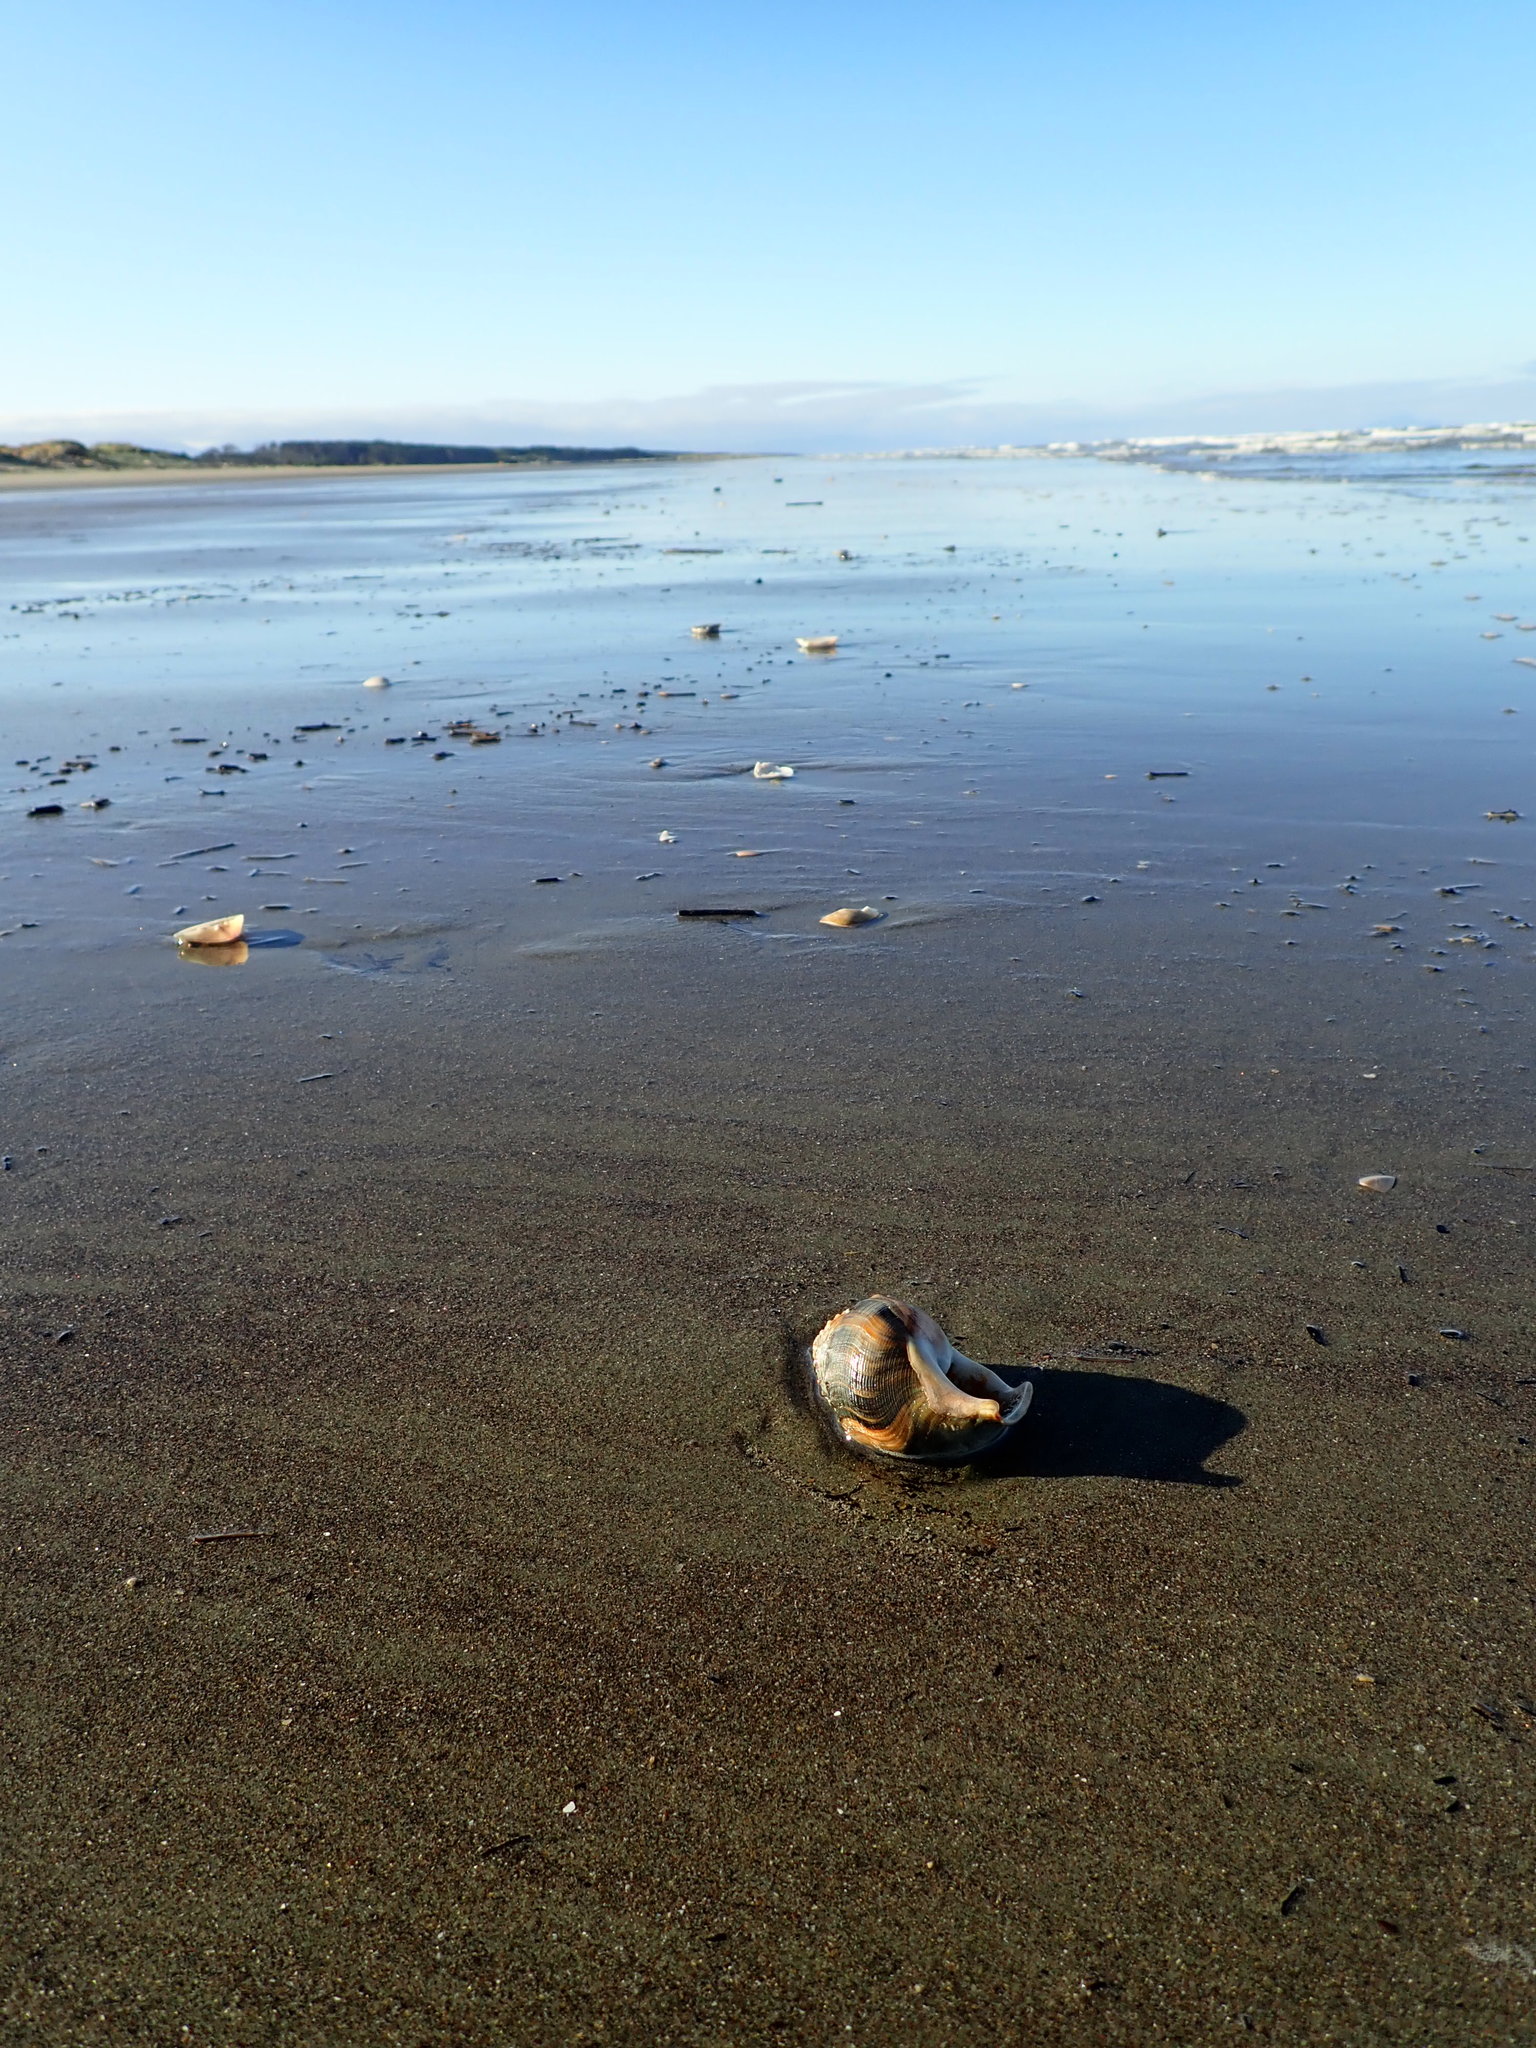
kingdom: Animalia
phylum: Mollusca
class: Gastropoda
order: Littorinimorpha
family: Struthiolariidae
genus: Struthiolaria
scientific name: Struthiolaria papulosa
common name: Large ostrich foot
